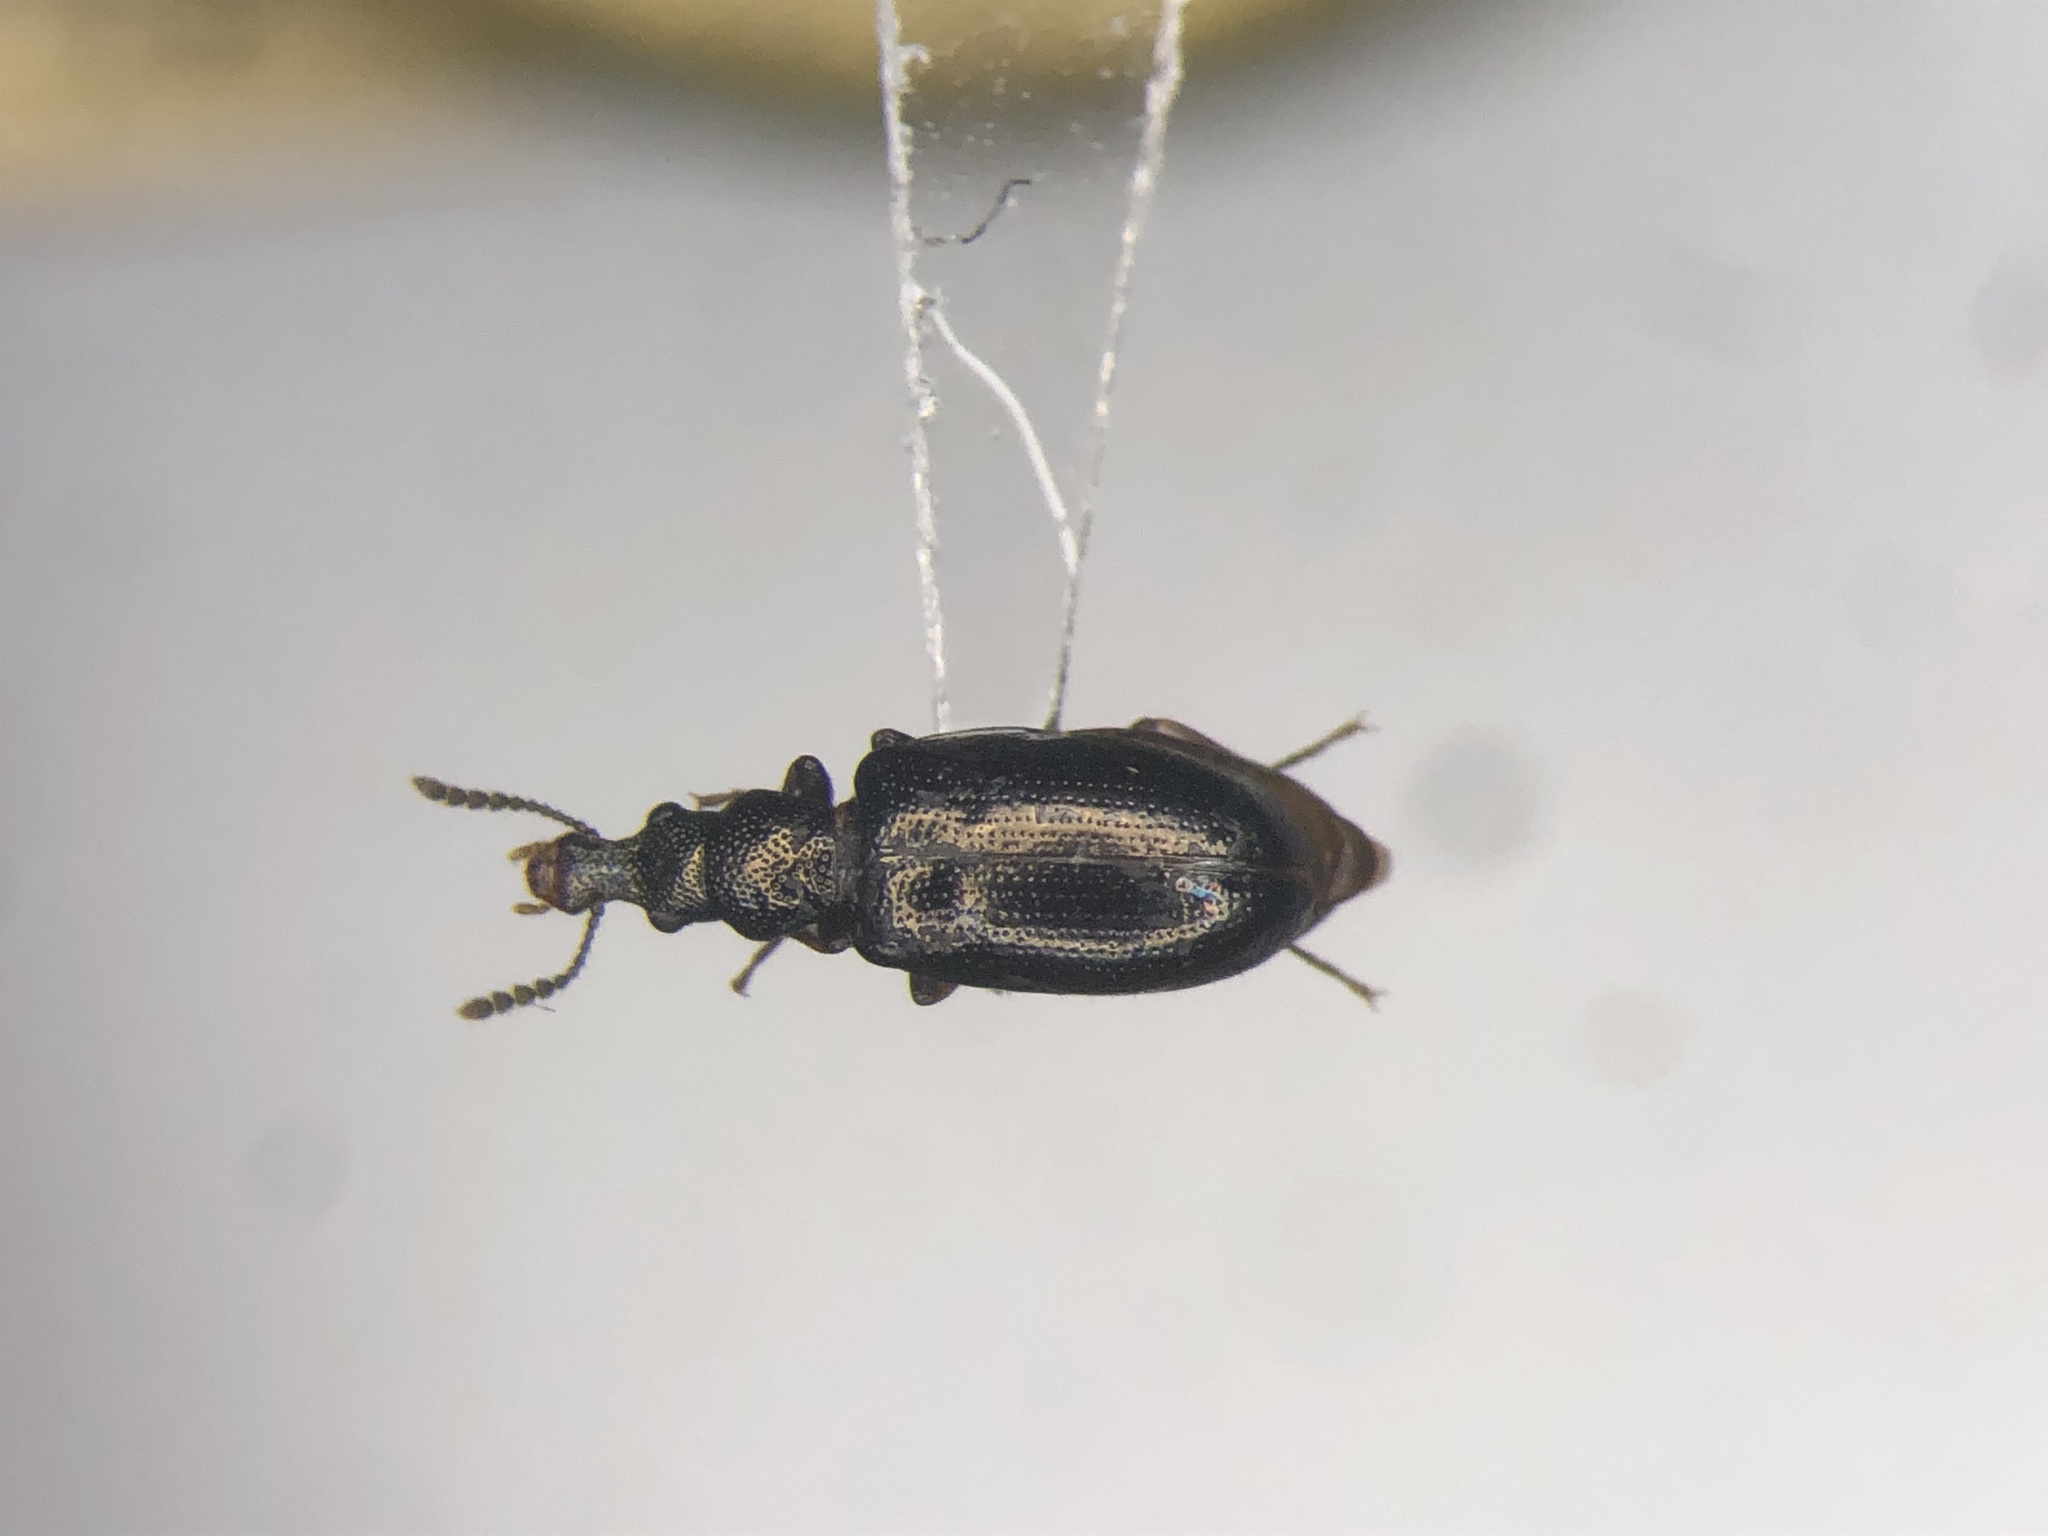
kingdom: Animalia
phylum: Arthropoda
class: Insecta
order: Coleoptera
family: Salpingidae
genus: Salpingus
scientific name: Salpingus
